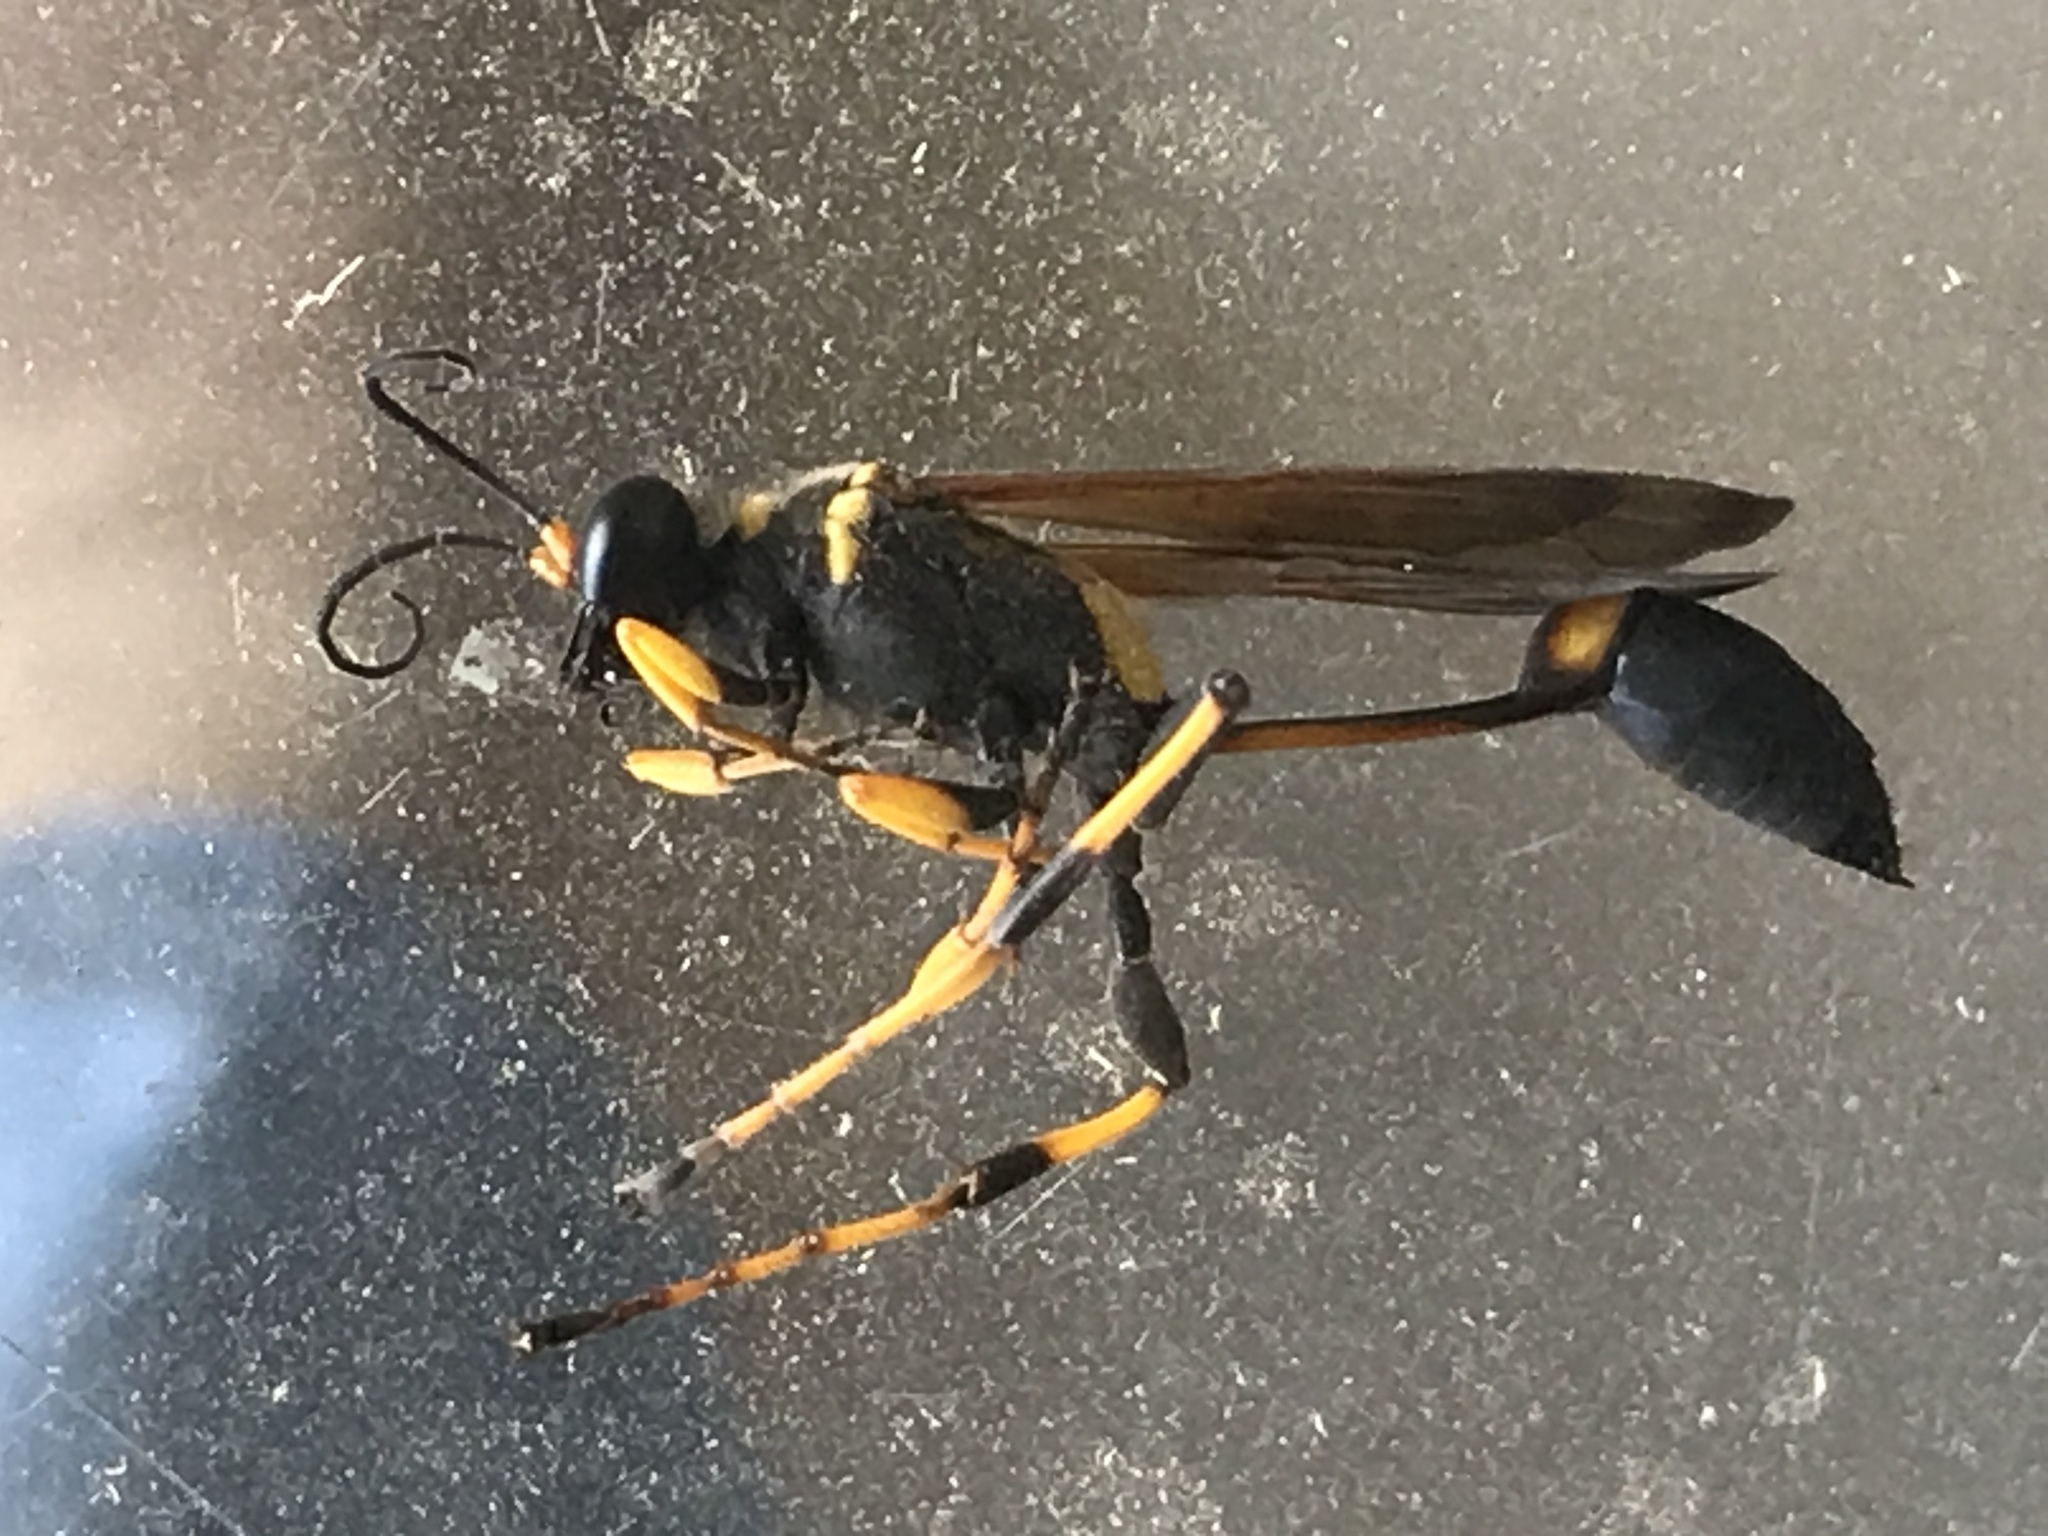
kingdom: Animalia
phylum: Arthropoda
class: Insecta
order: Hymenoptera
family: Sphecidae
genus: Sceliphron
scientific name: Sceliphron caementarium
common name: Mud dauber
